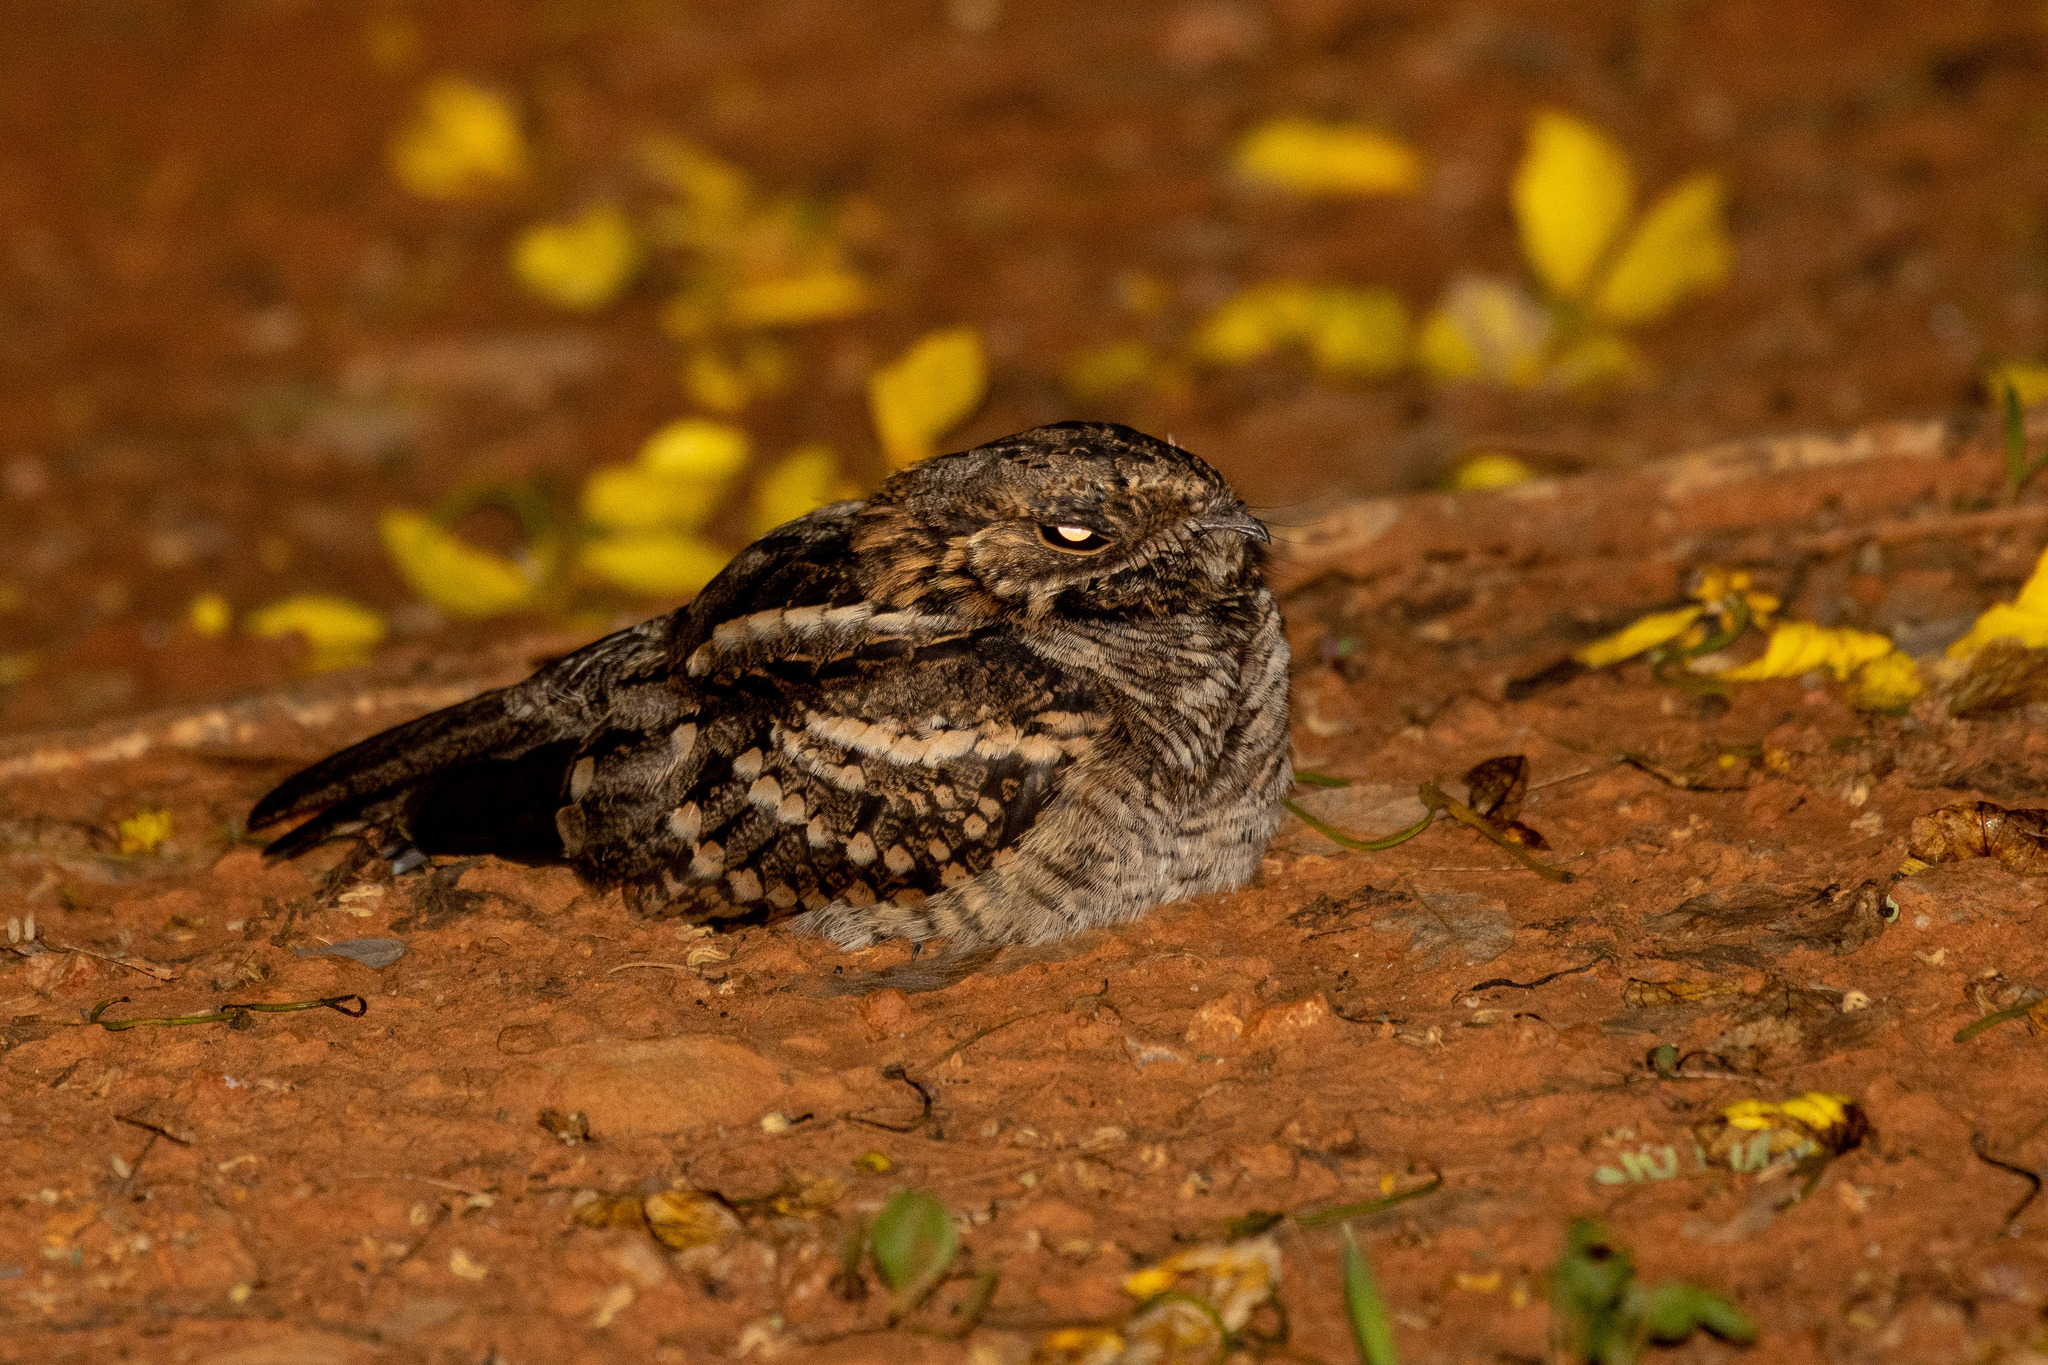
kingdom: Animalia
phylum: Chordata
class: Aves
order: Caprimulgiformes
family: Caprimulgidae
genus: Setopagis
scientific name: Setopagis parvula
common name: Little nightjar
